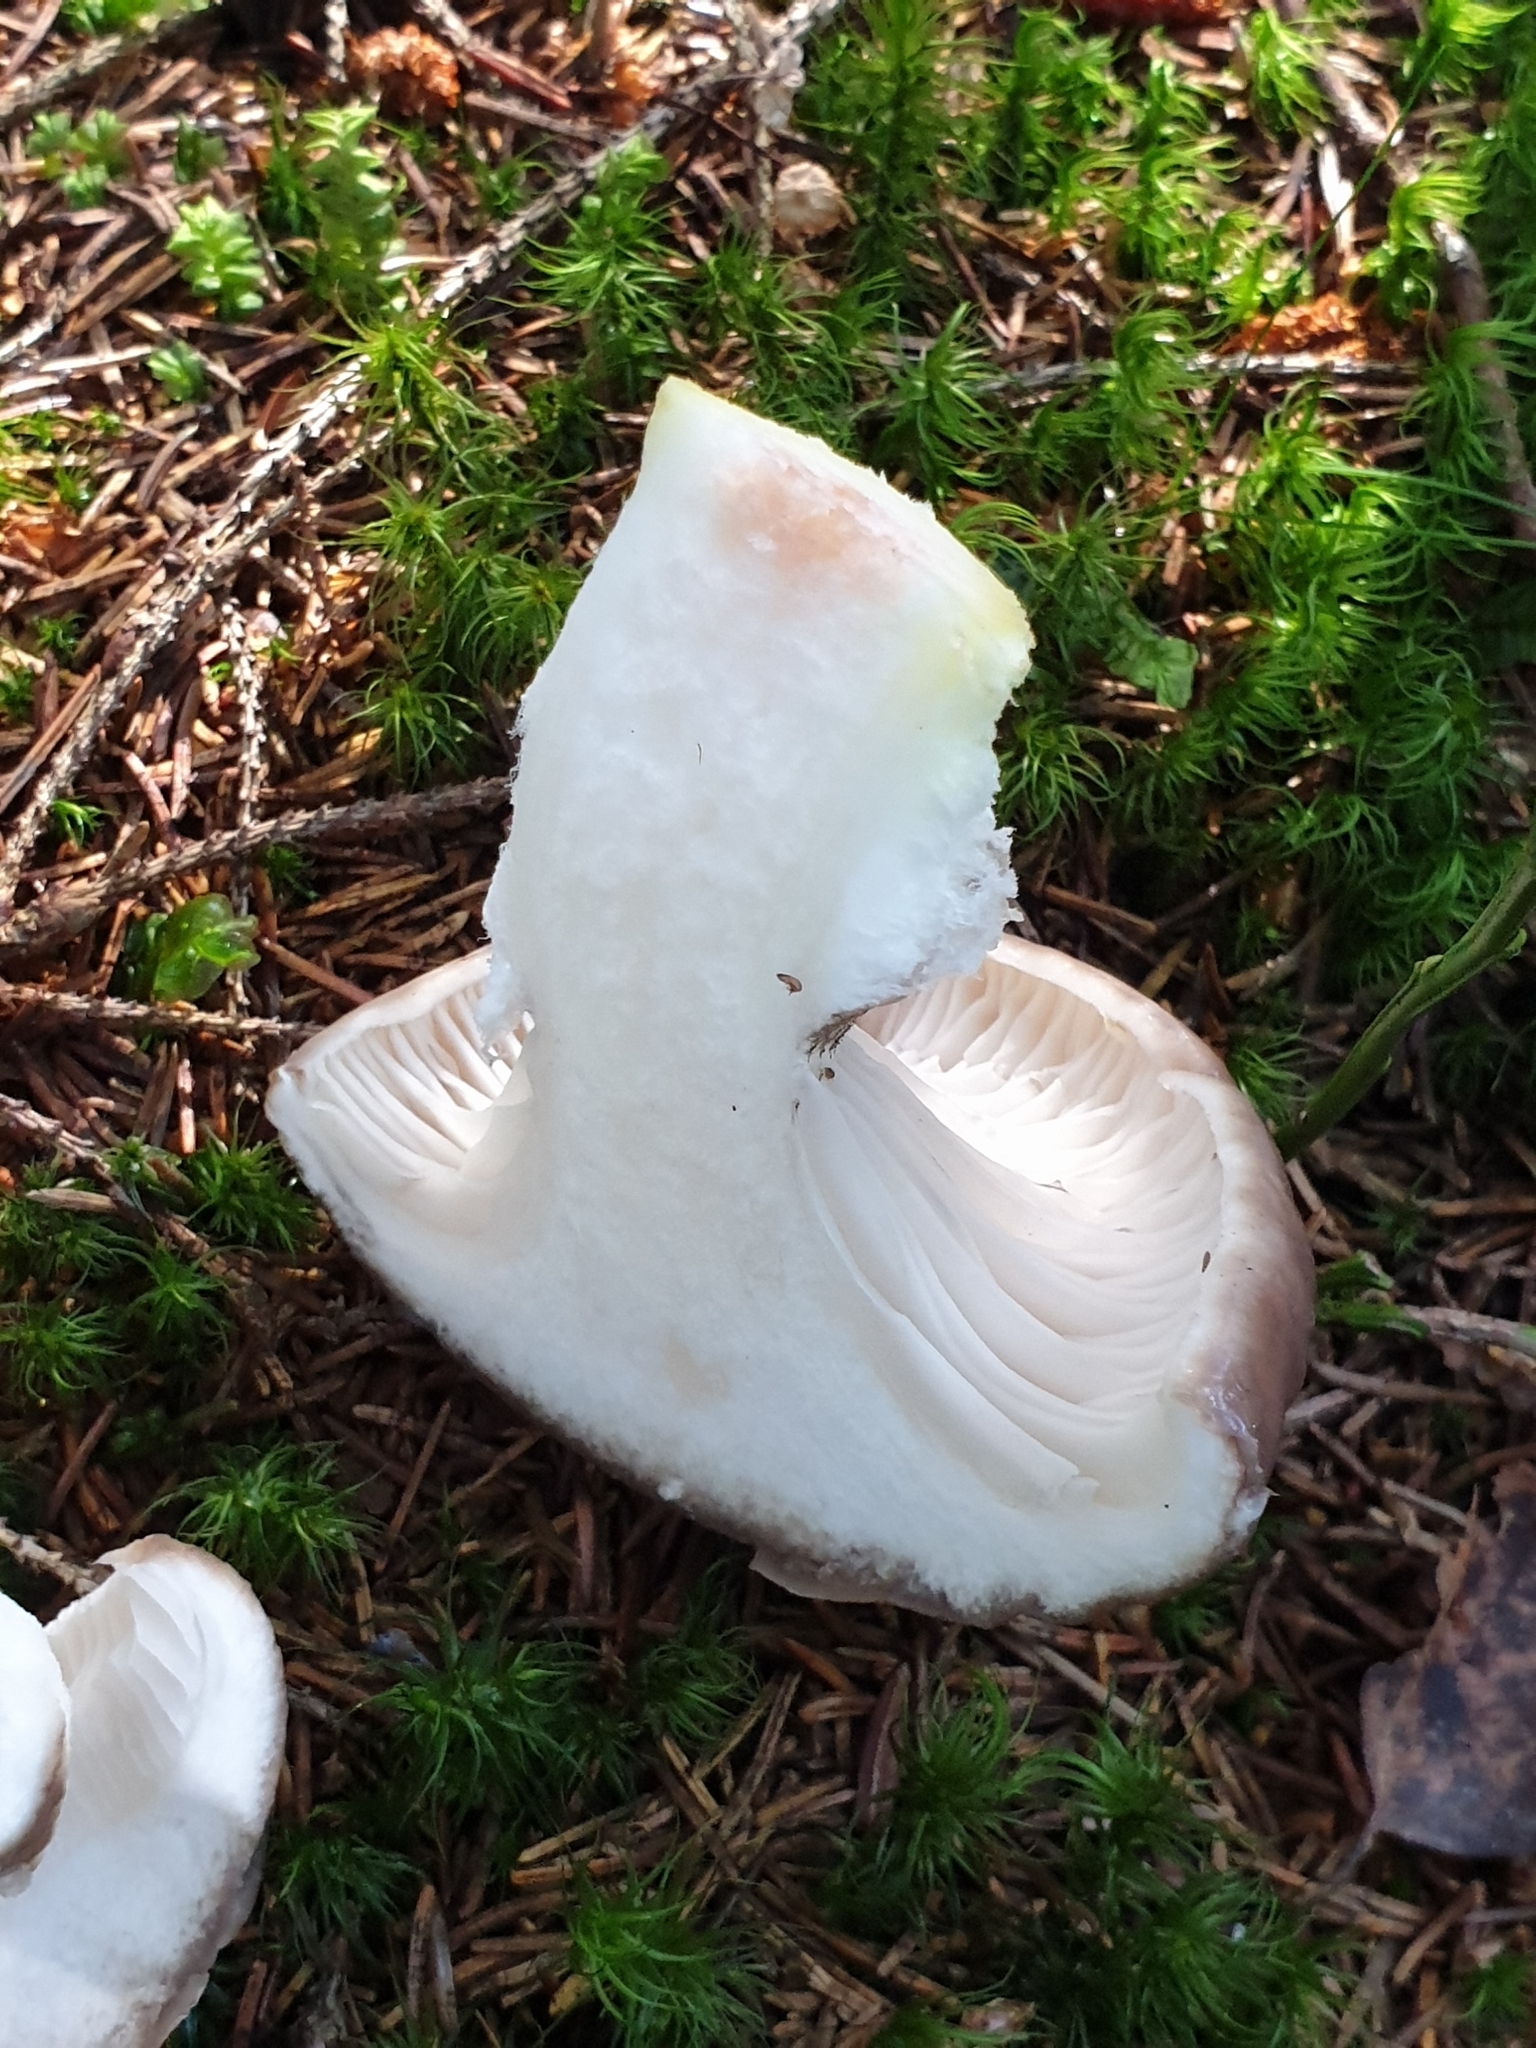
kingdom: Fungi
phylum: Basidiomycota
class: Agaricomycetes
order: Boletales
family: Gomphidiaceae
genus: Gomphidius
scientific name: Gomphidius glutinosus
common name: Slimy spike
